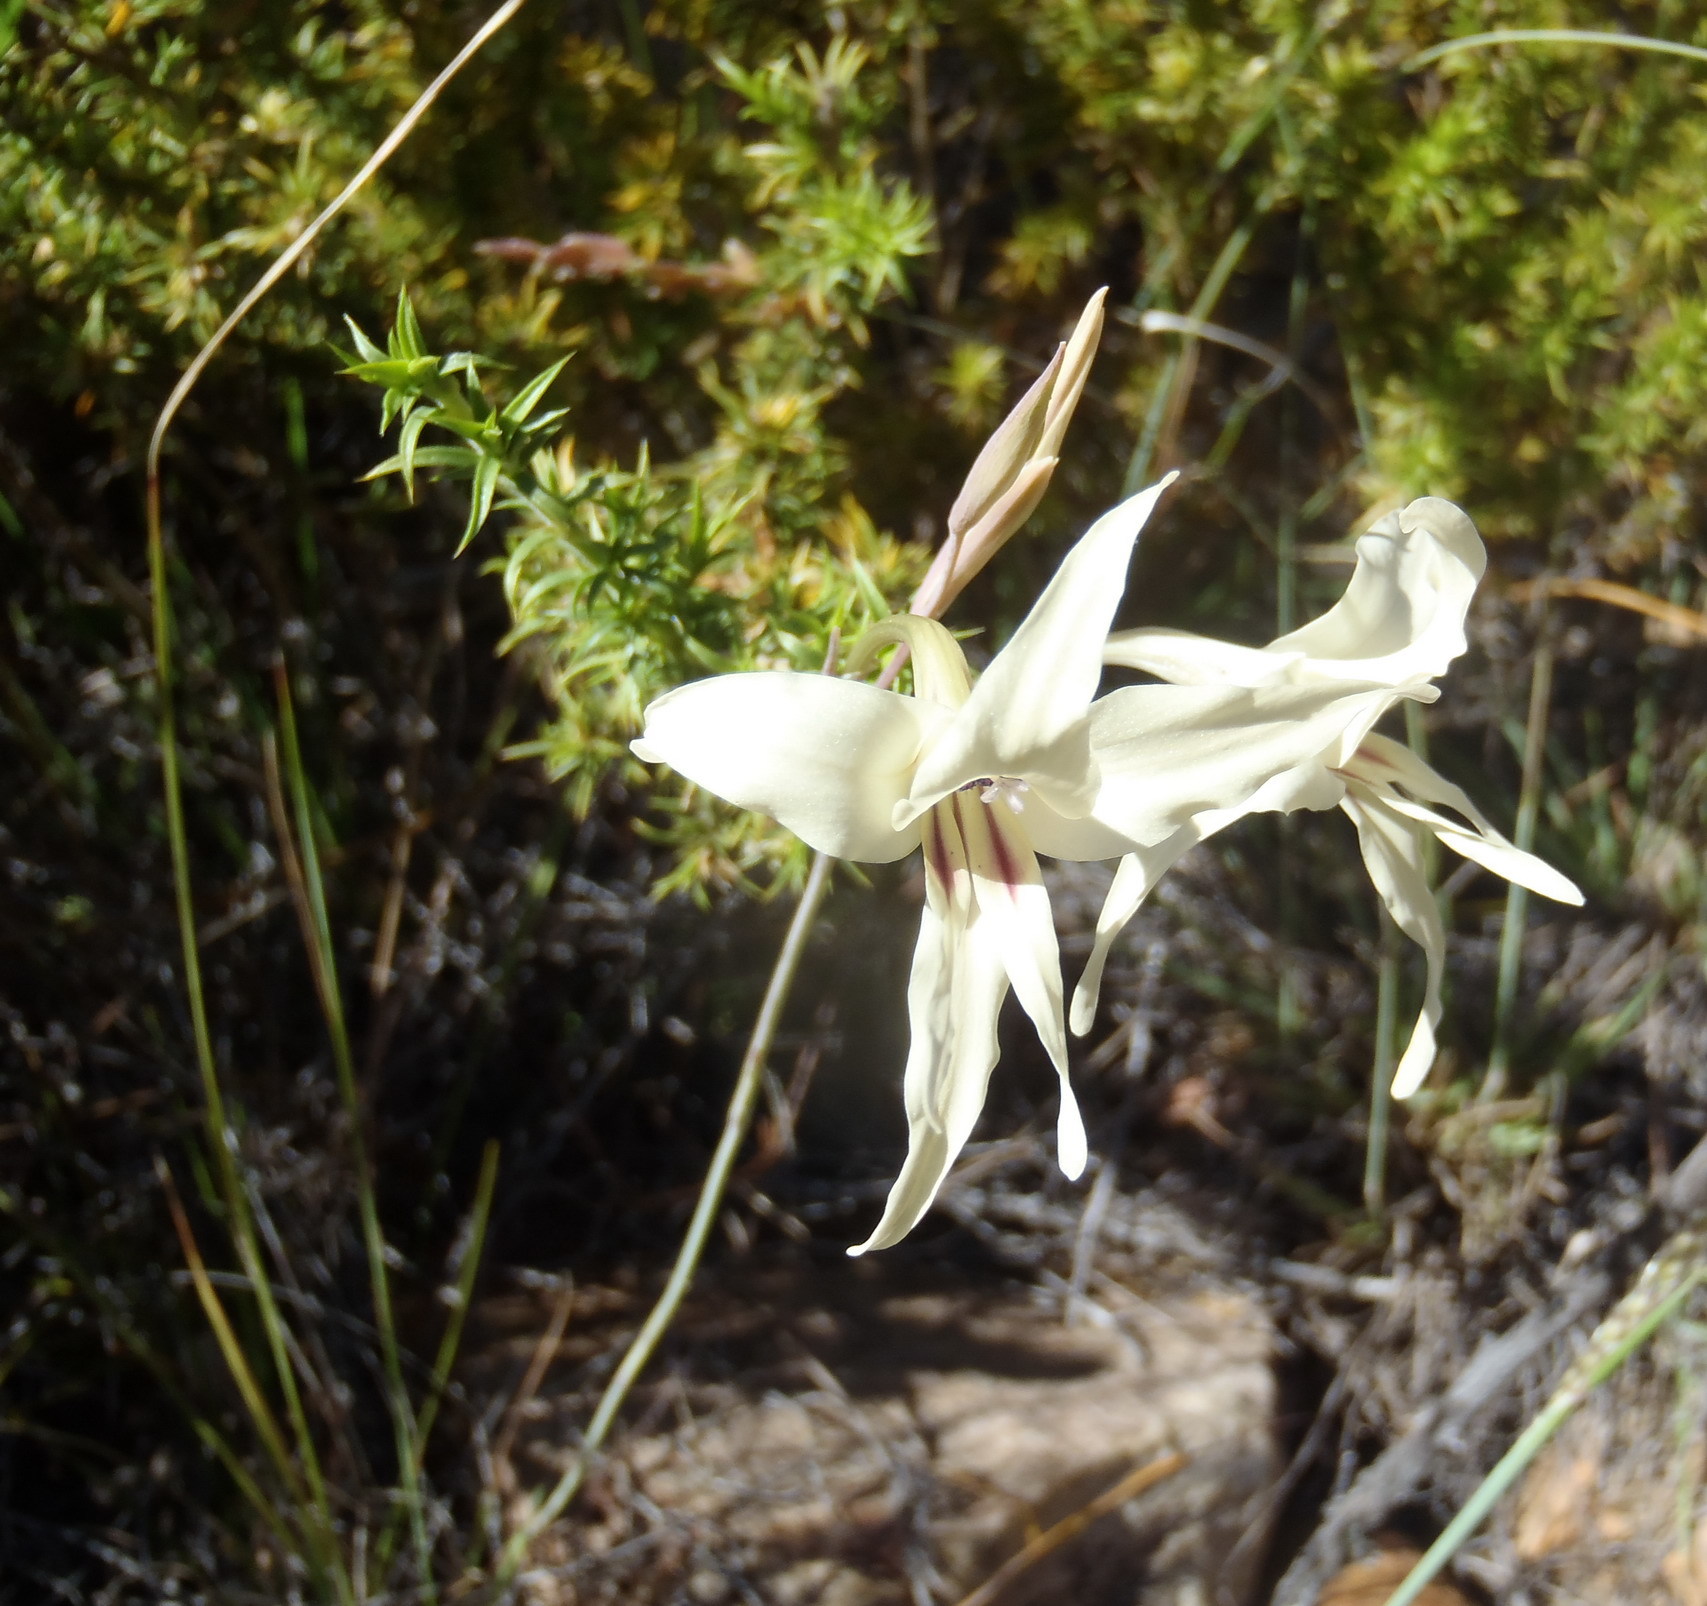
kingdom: Plantae
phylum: Tracheophyta
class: Liliopsida
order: Asparagales
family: Iridaceae
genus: Gladiolus
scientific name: Gladiolus leptosiphon
